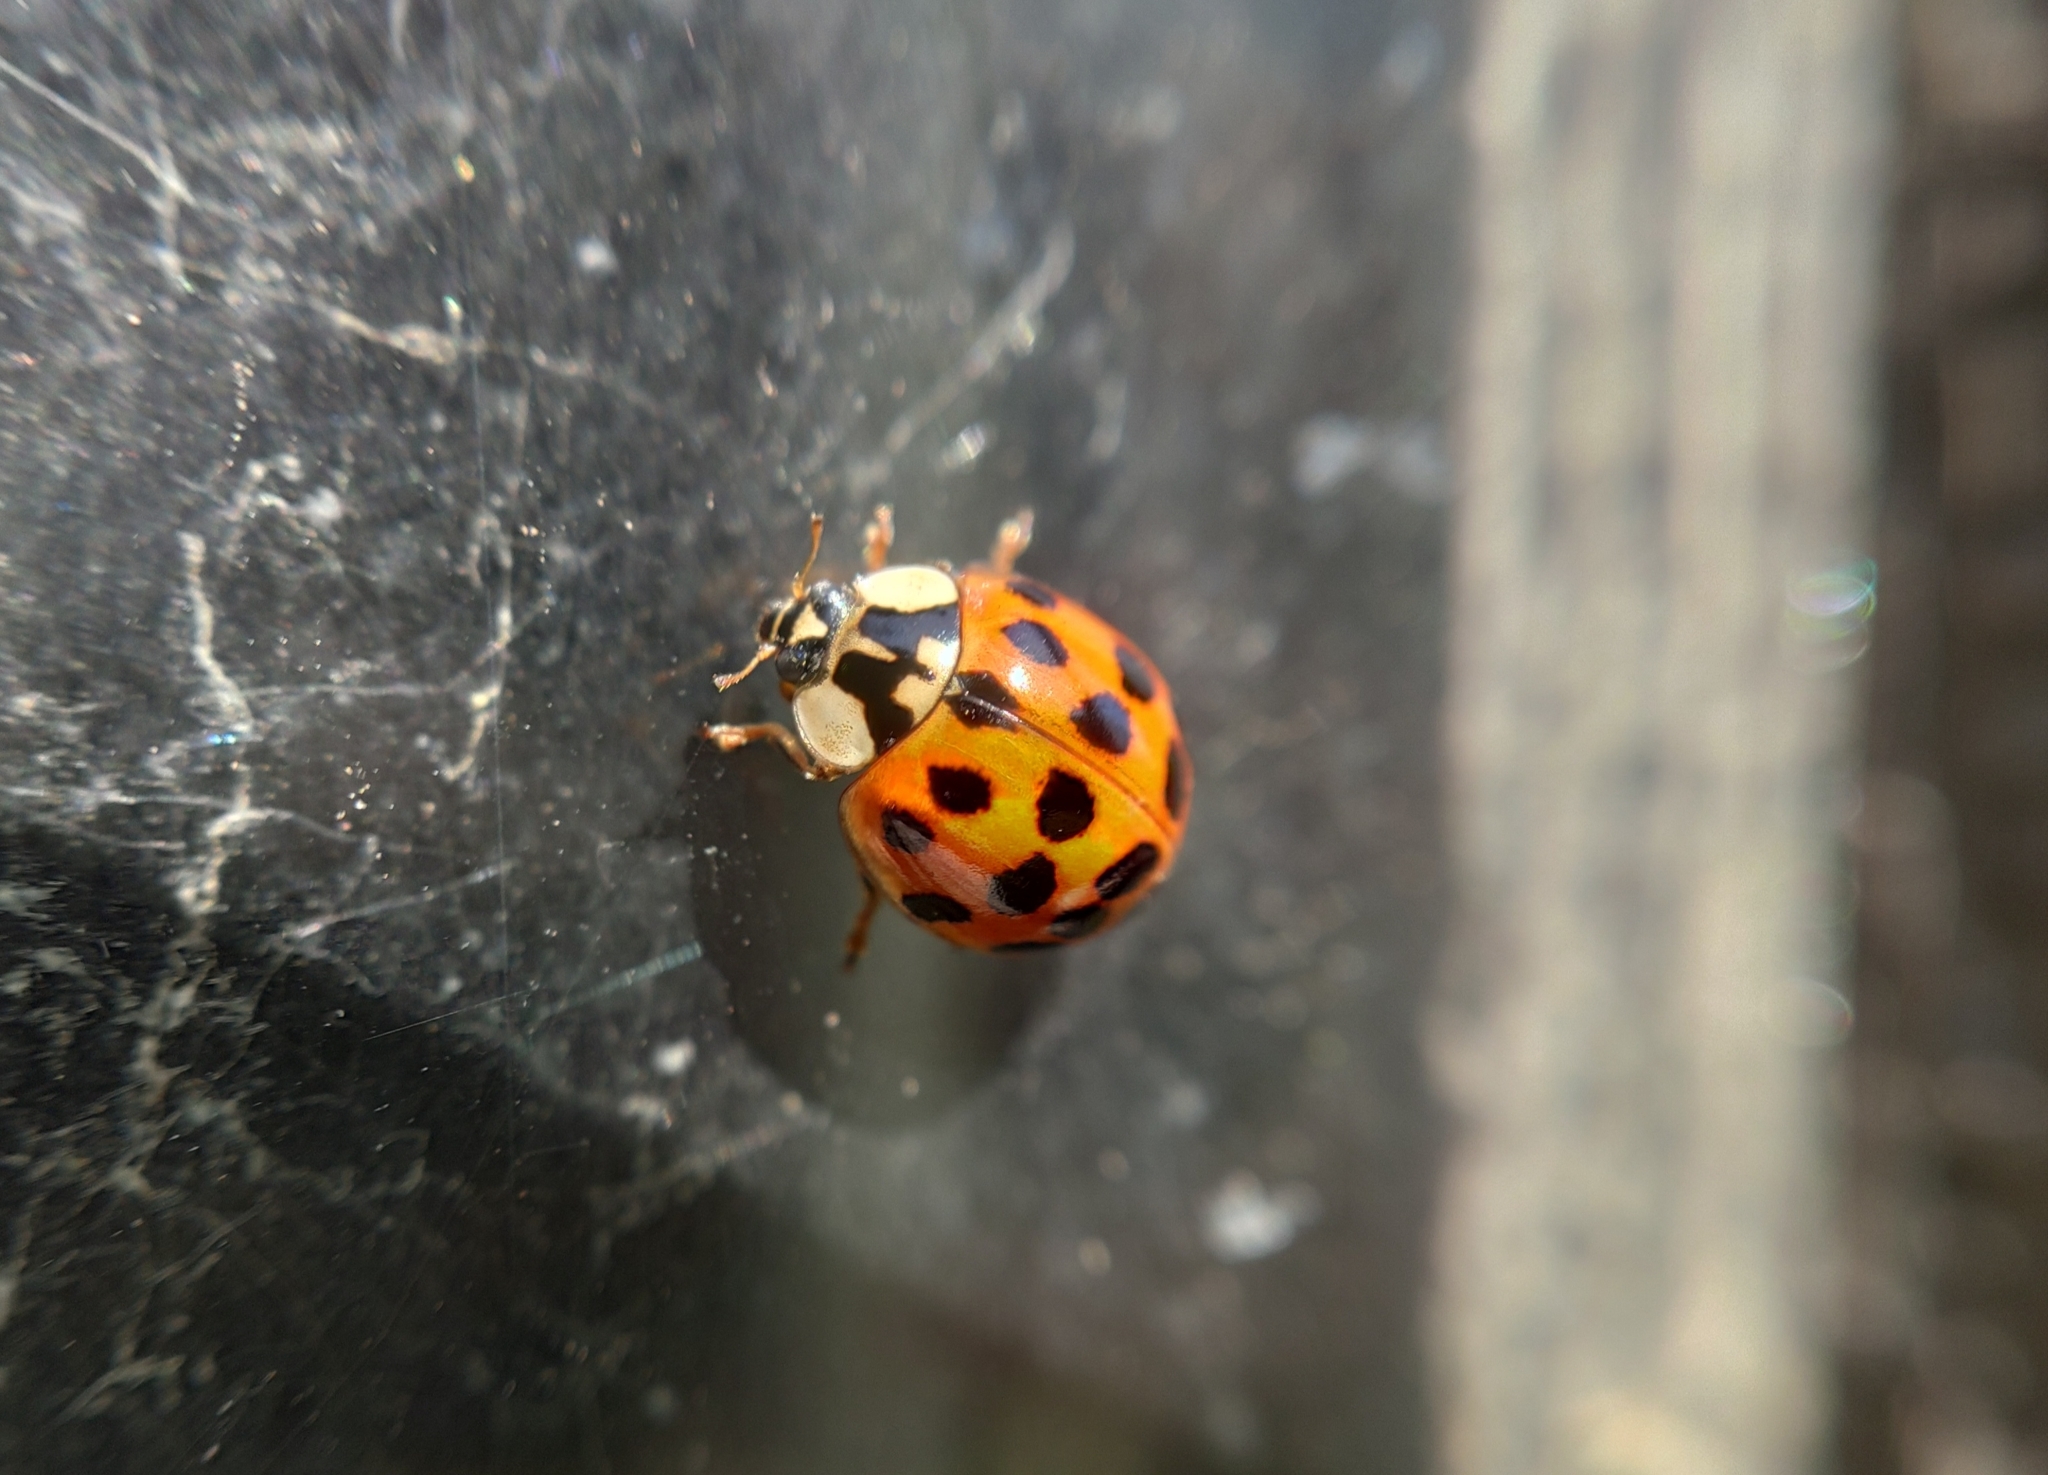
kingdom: Animalia
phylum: Arthropoda
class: Insecta
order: Coleoptera
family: Coccinellidae
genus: Harmonia
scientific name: Harmonia axyridis
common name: Harlequin ladybird
